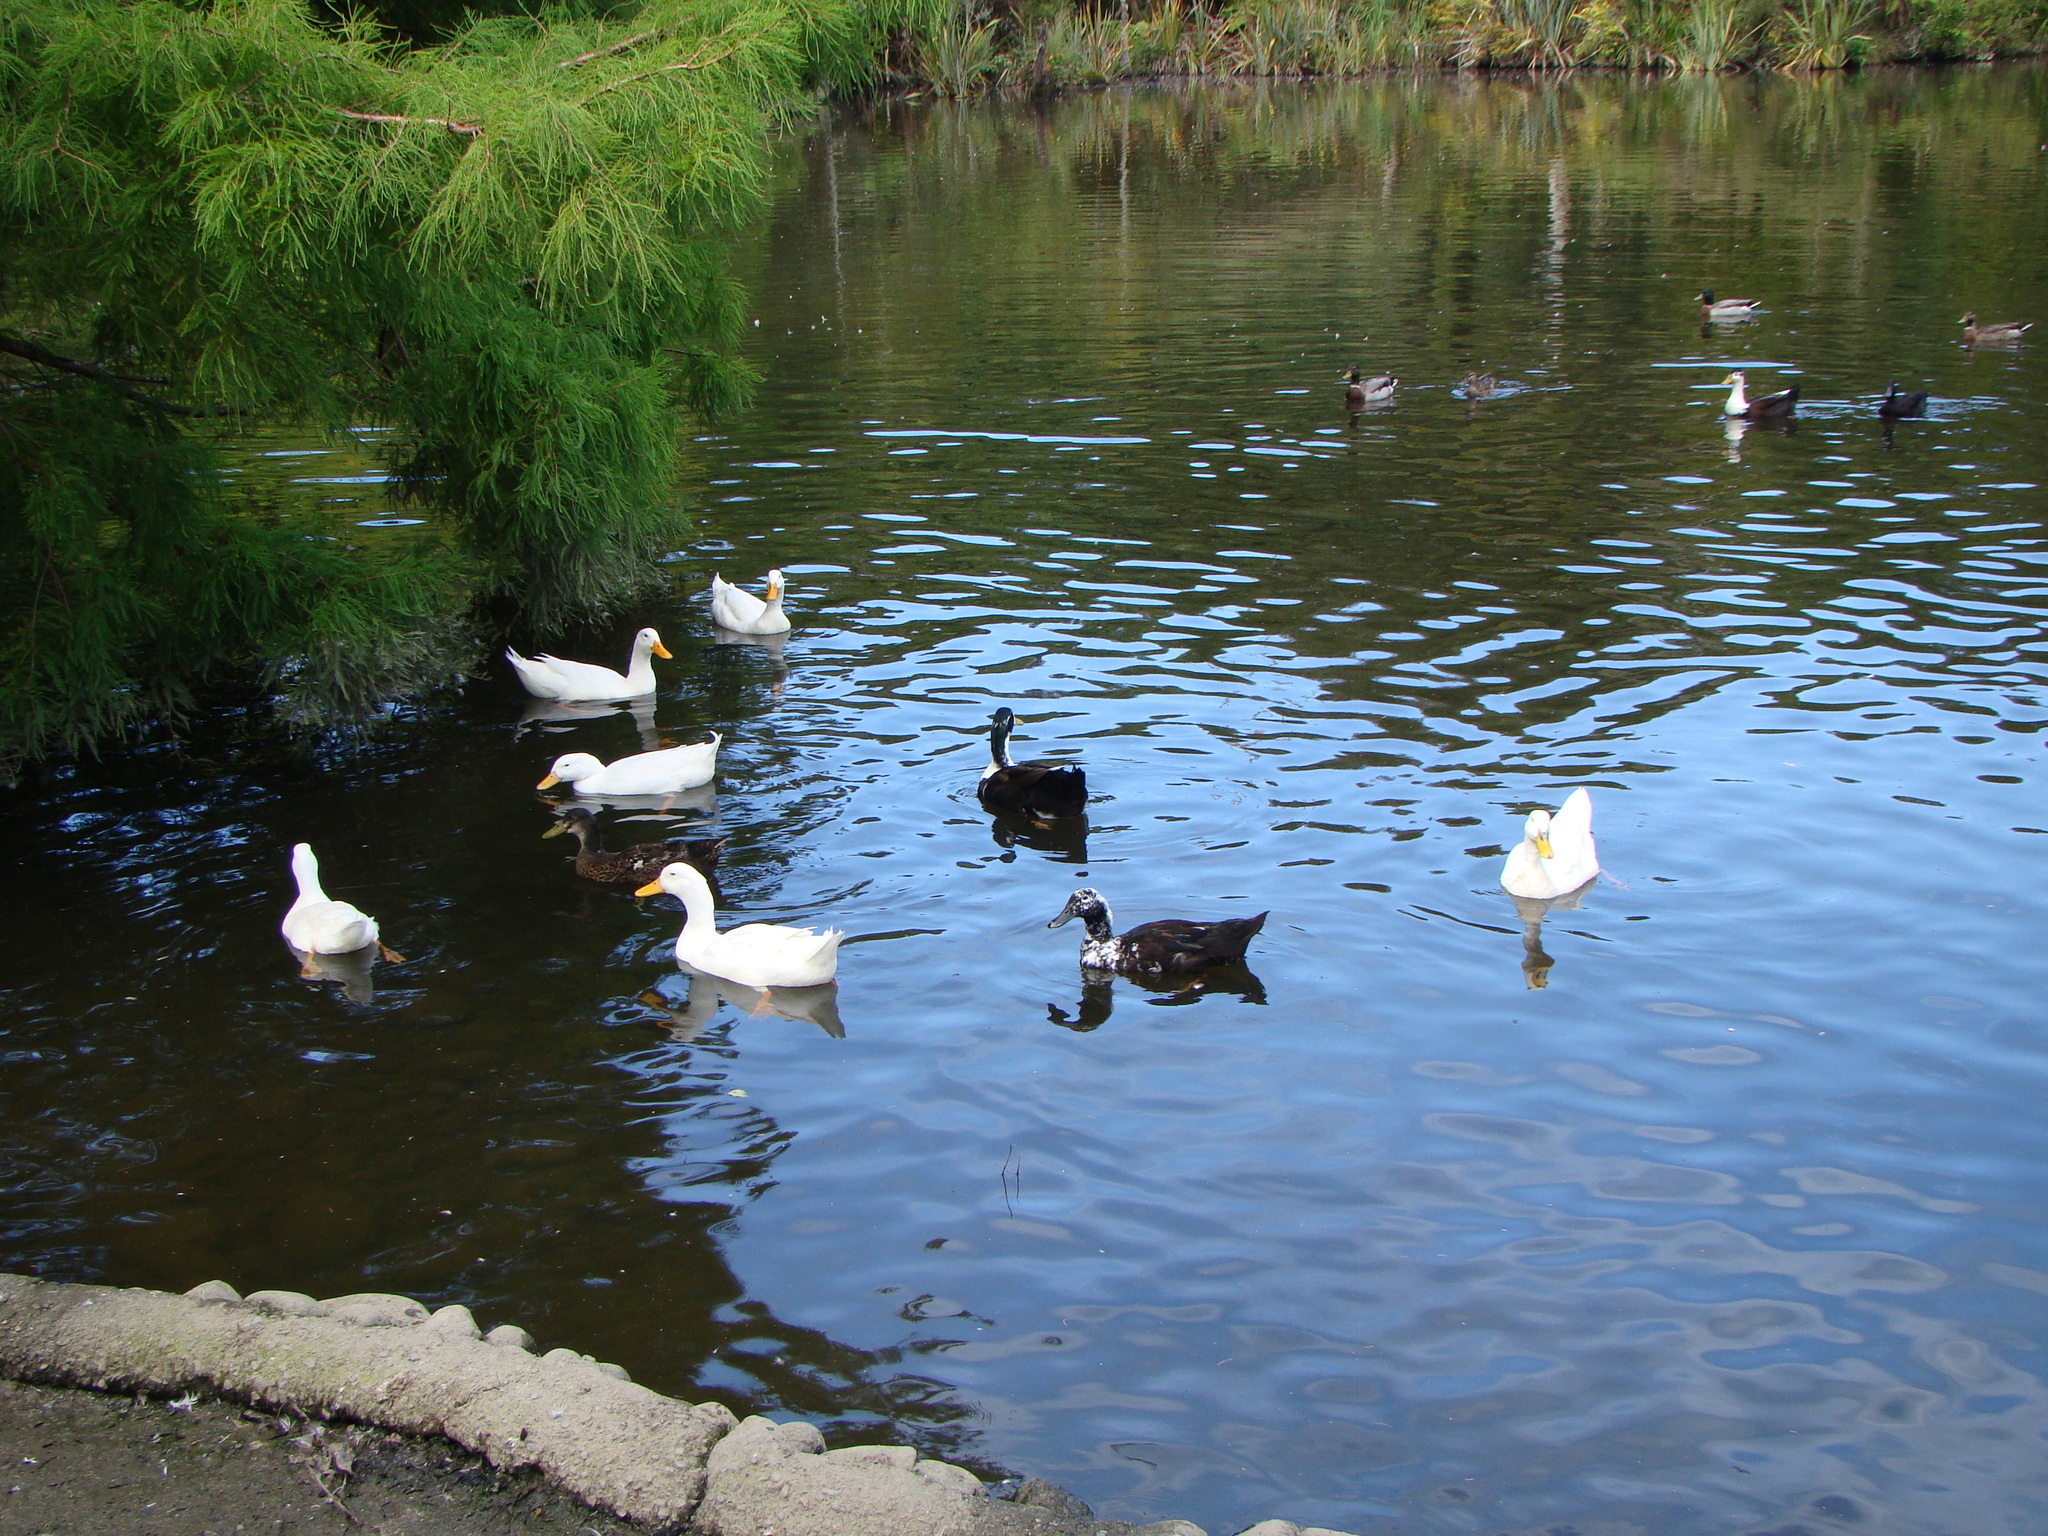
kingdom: Animalia
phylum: Chordata
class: Aves
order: Anseriformes
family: Anatidae
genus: Anas
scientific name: Anas platyrhynchos
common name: Mallard
